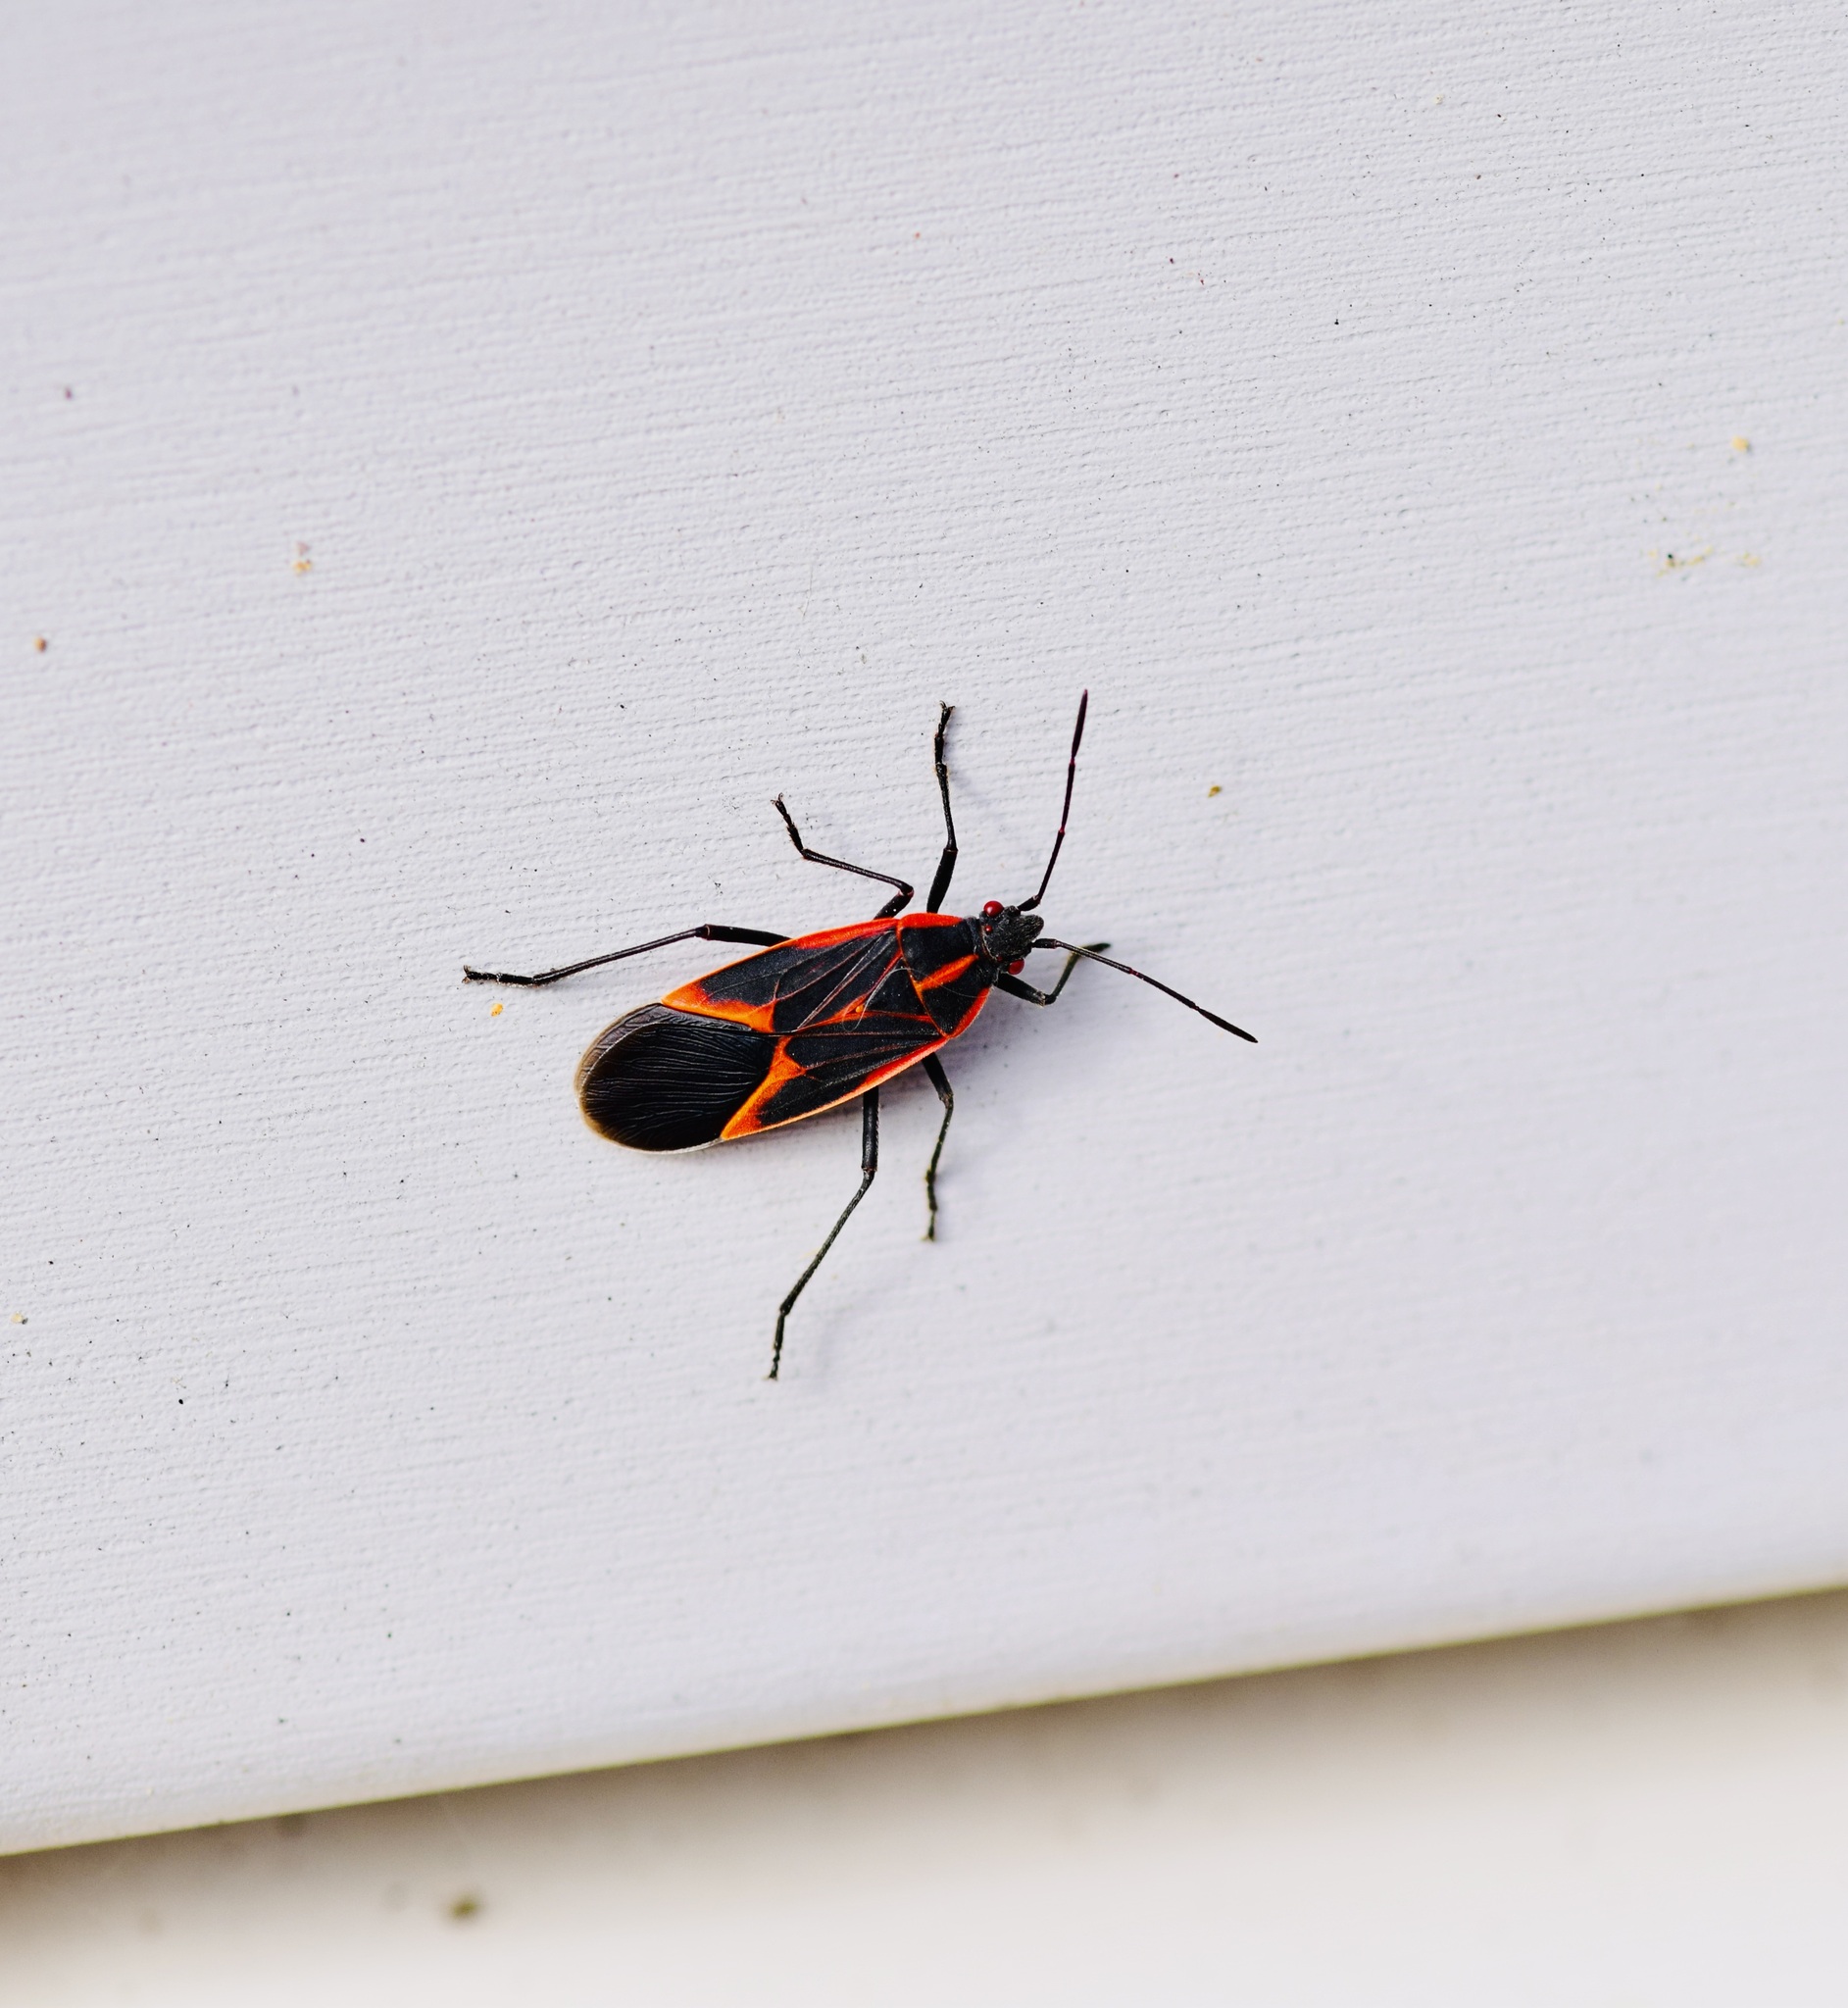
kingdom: Animalia
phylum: Arthropoda
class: Insecta
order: Hemiptera
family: Rhopalidae
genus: Boisea
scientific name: Boisea trivittata
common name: Boxelder bug
